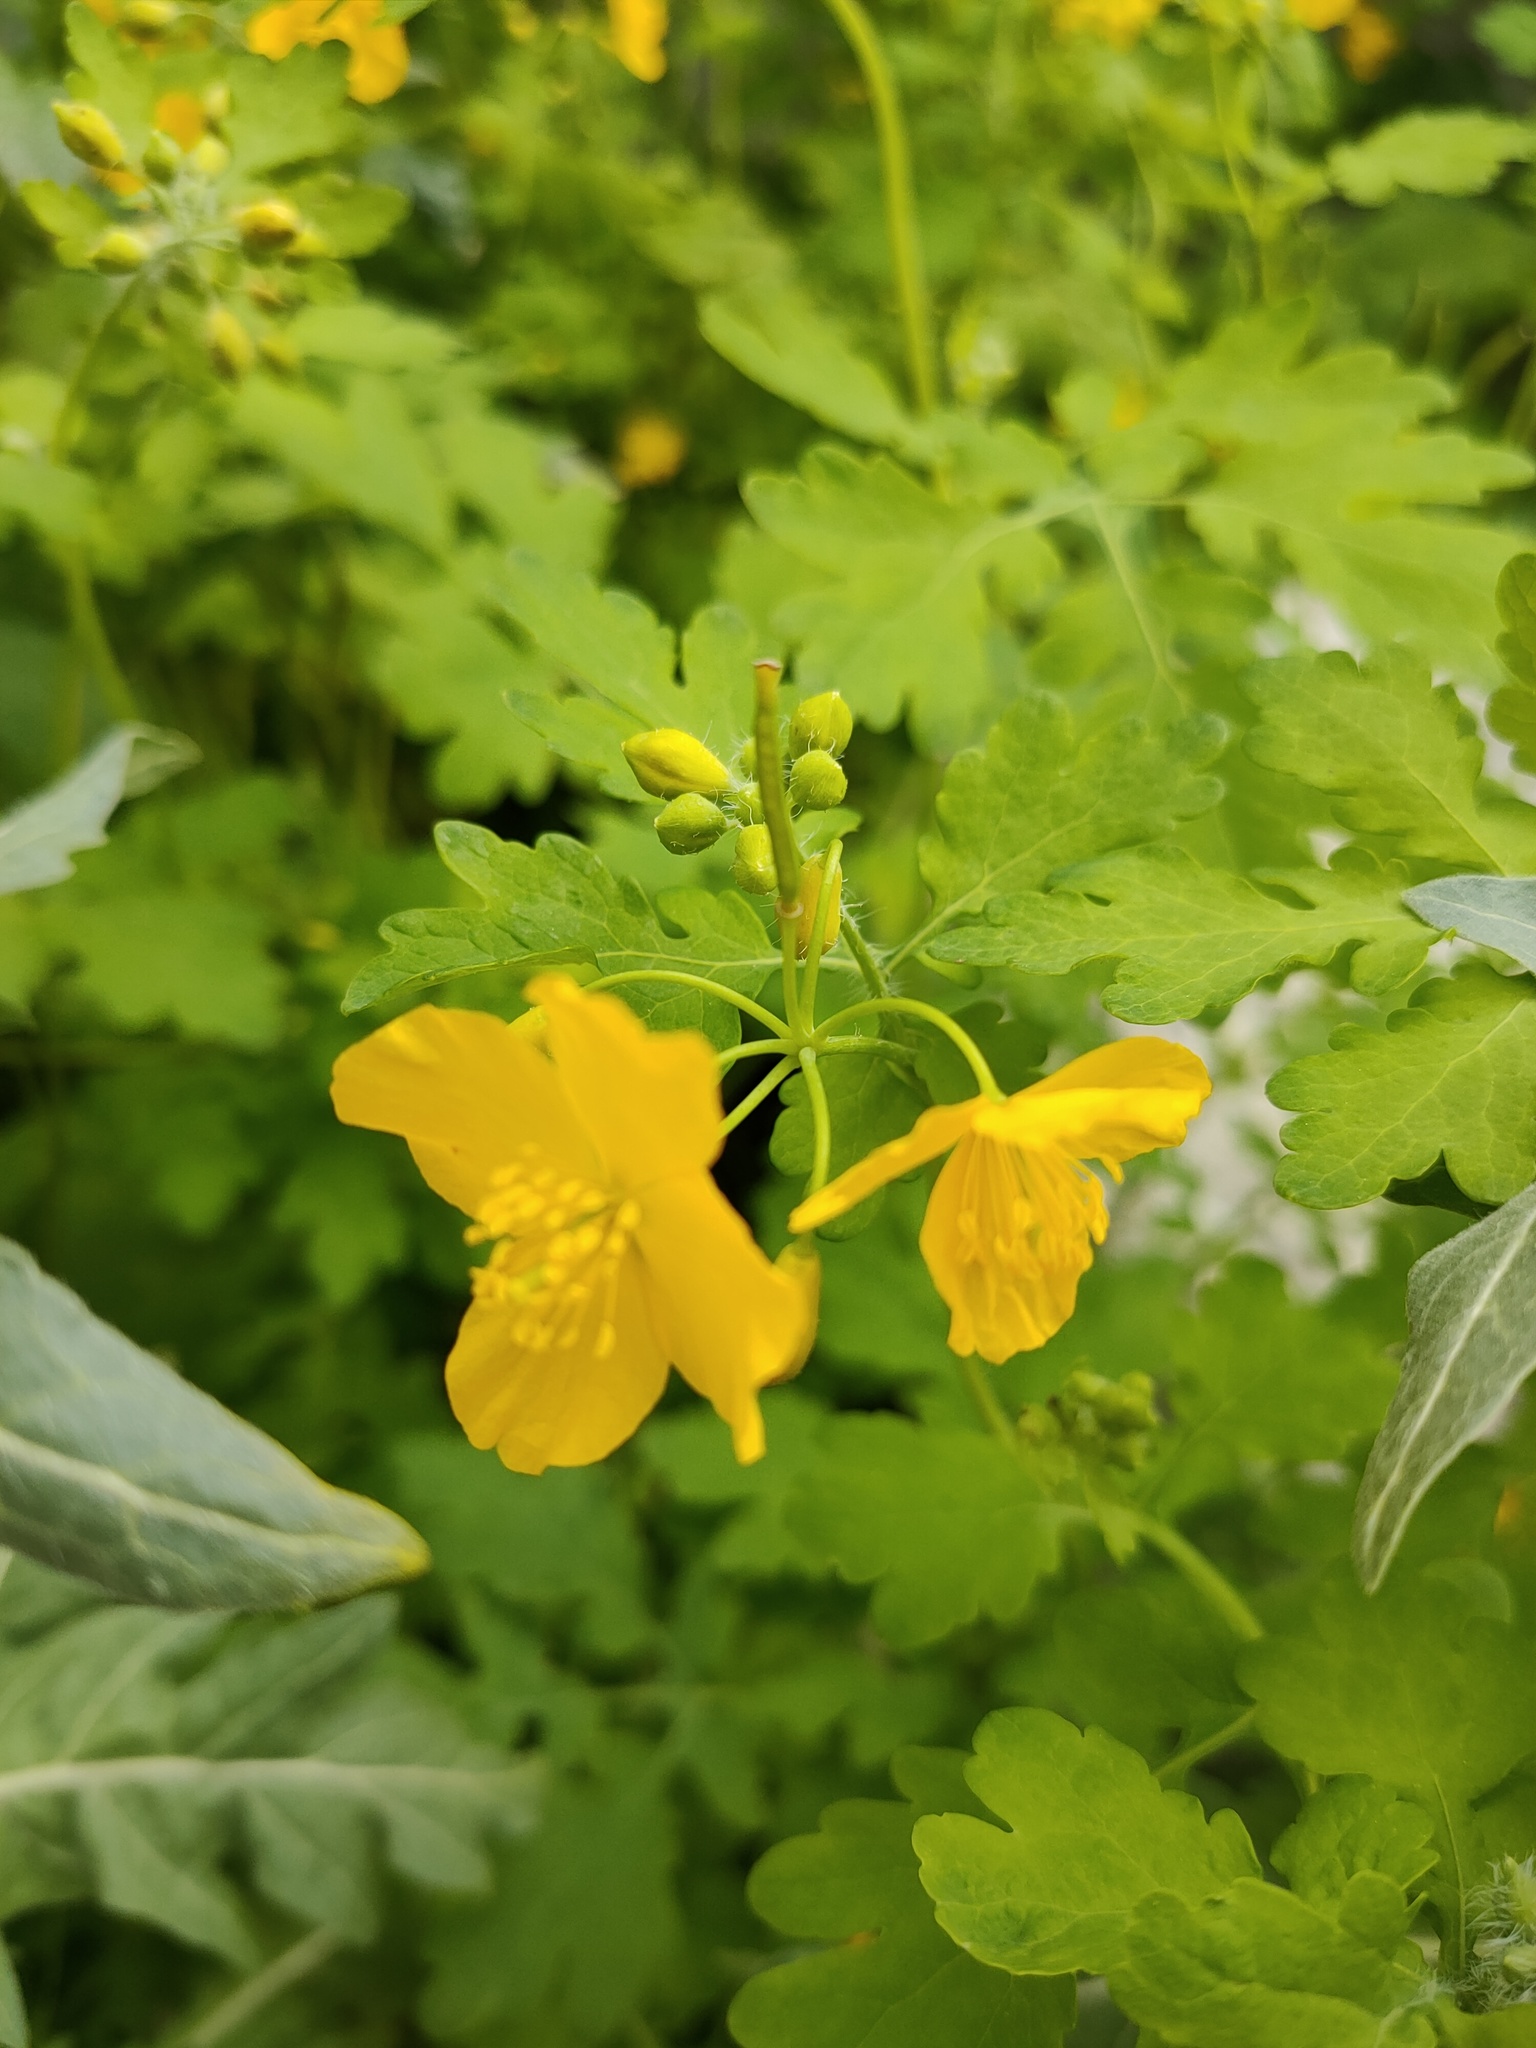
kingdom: Plantae
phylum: Tracheophyta
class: Magnoliopsida
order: Ranunculales
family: Papaveraceae
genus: Chelidonium
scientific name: Chelidonium majus
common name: Greater celandine
